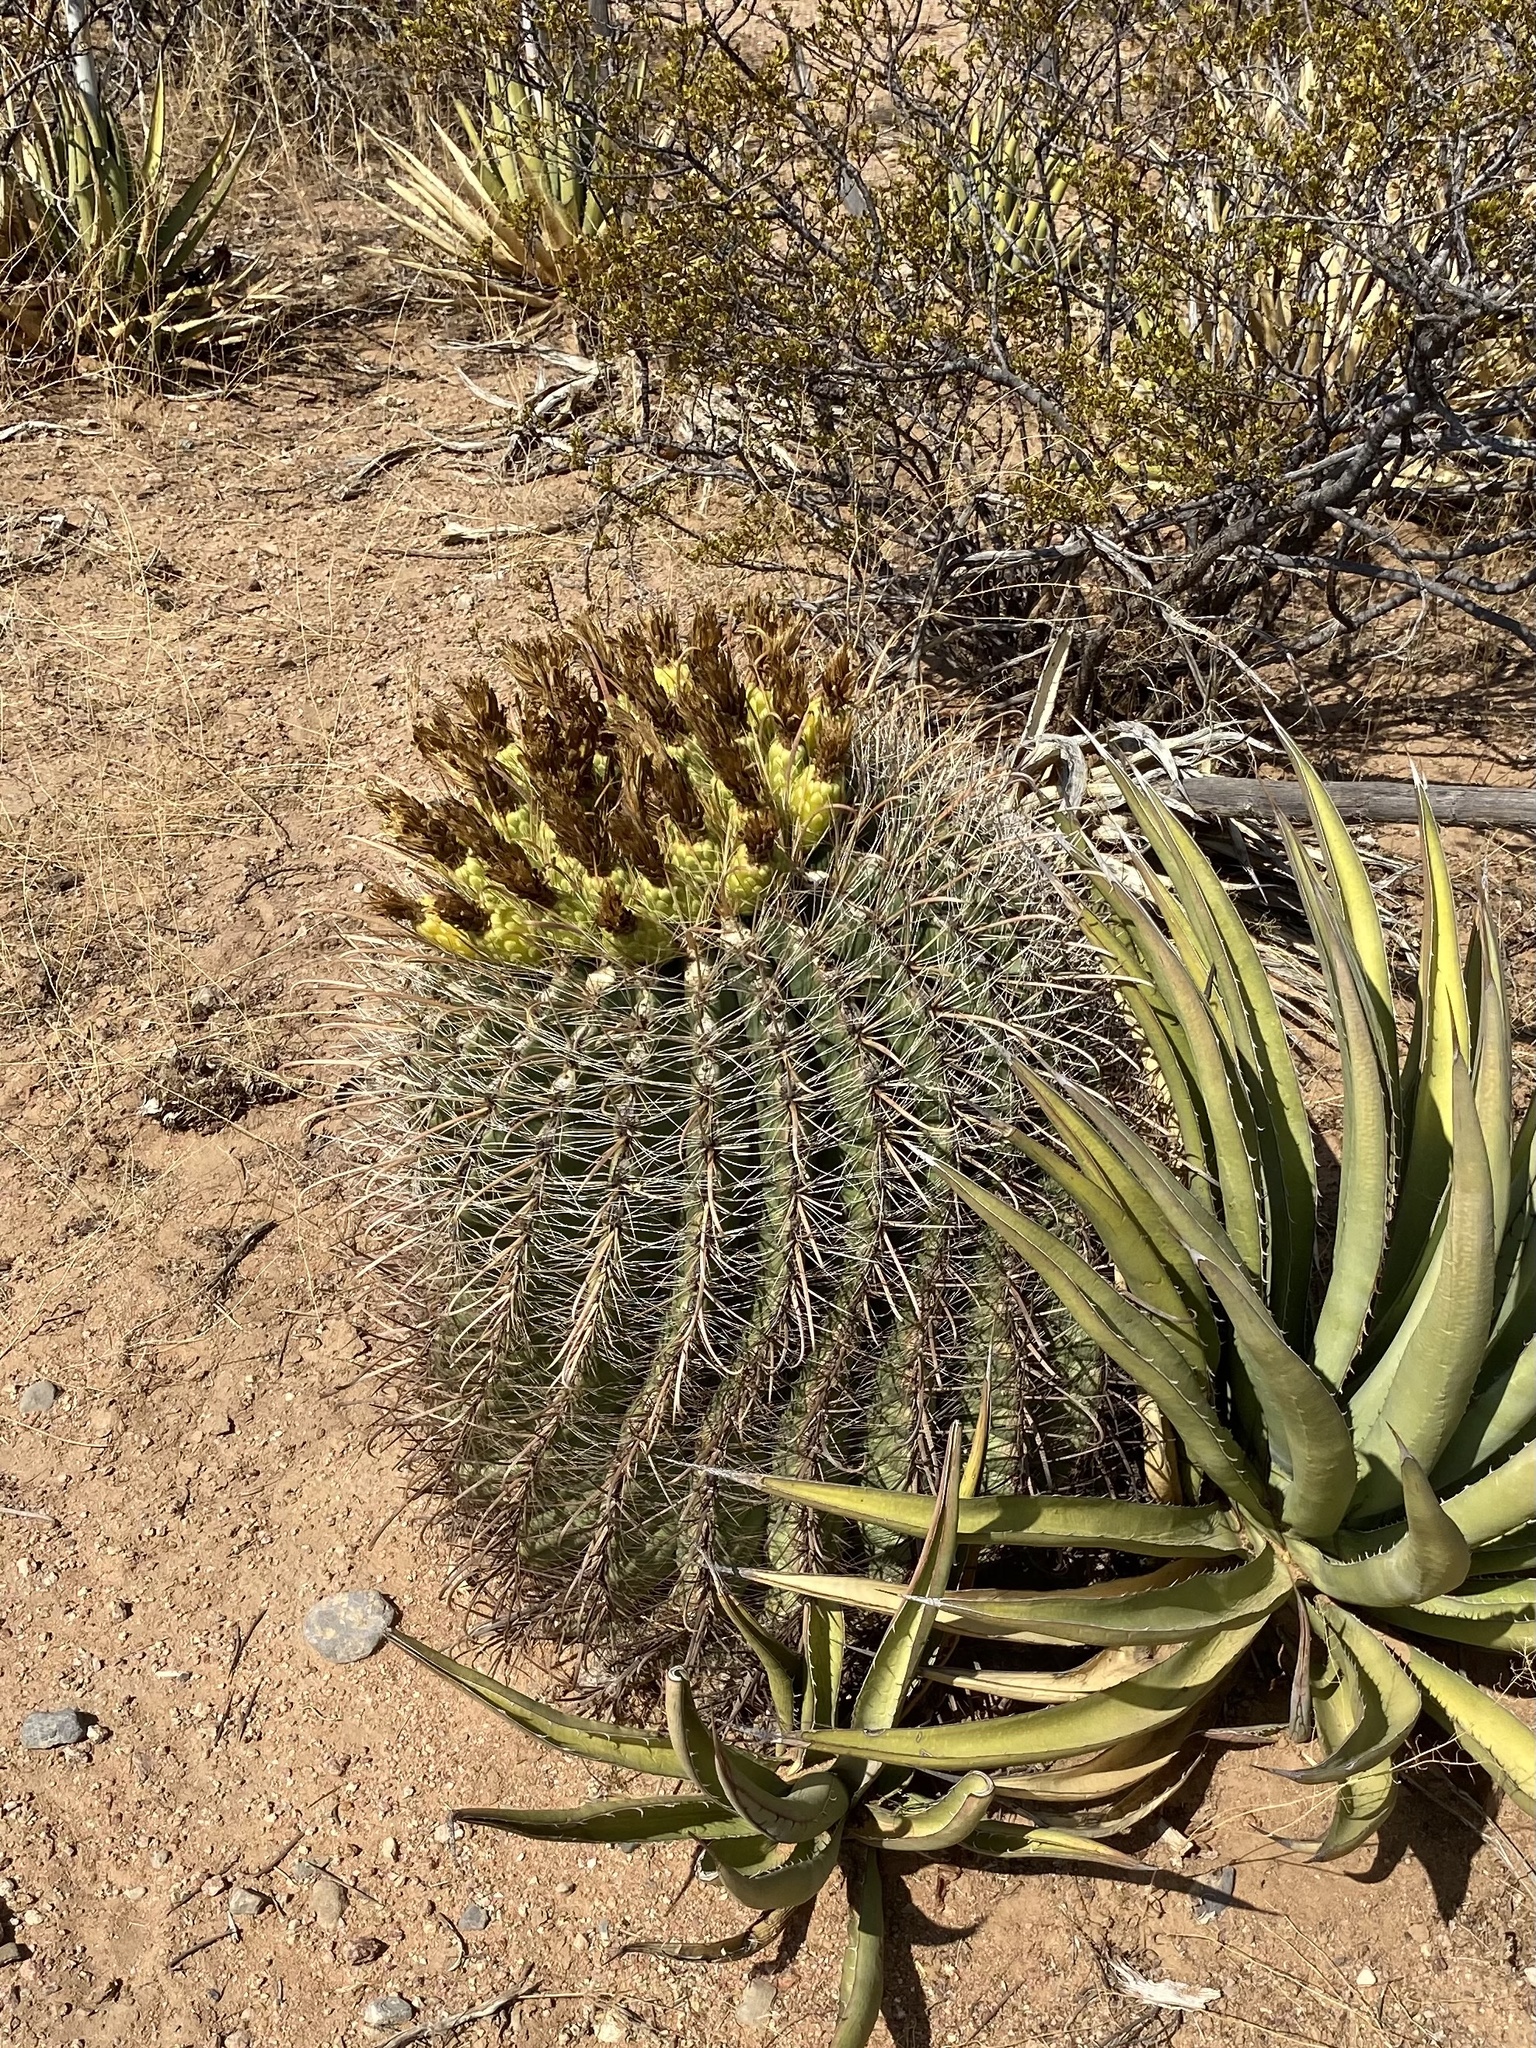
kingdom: Plantae
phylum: Tracheophyta
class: Magnoliopsida
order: Caryophyllales
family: Cactaceae
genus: Ferocactus
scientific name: Ferocactus wislizeni
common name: Candy barrel cactus
